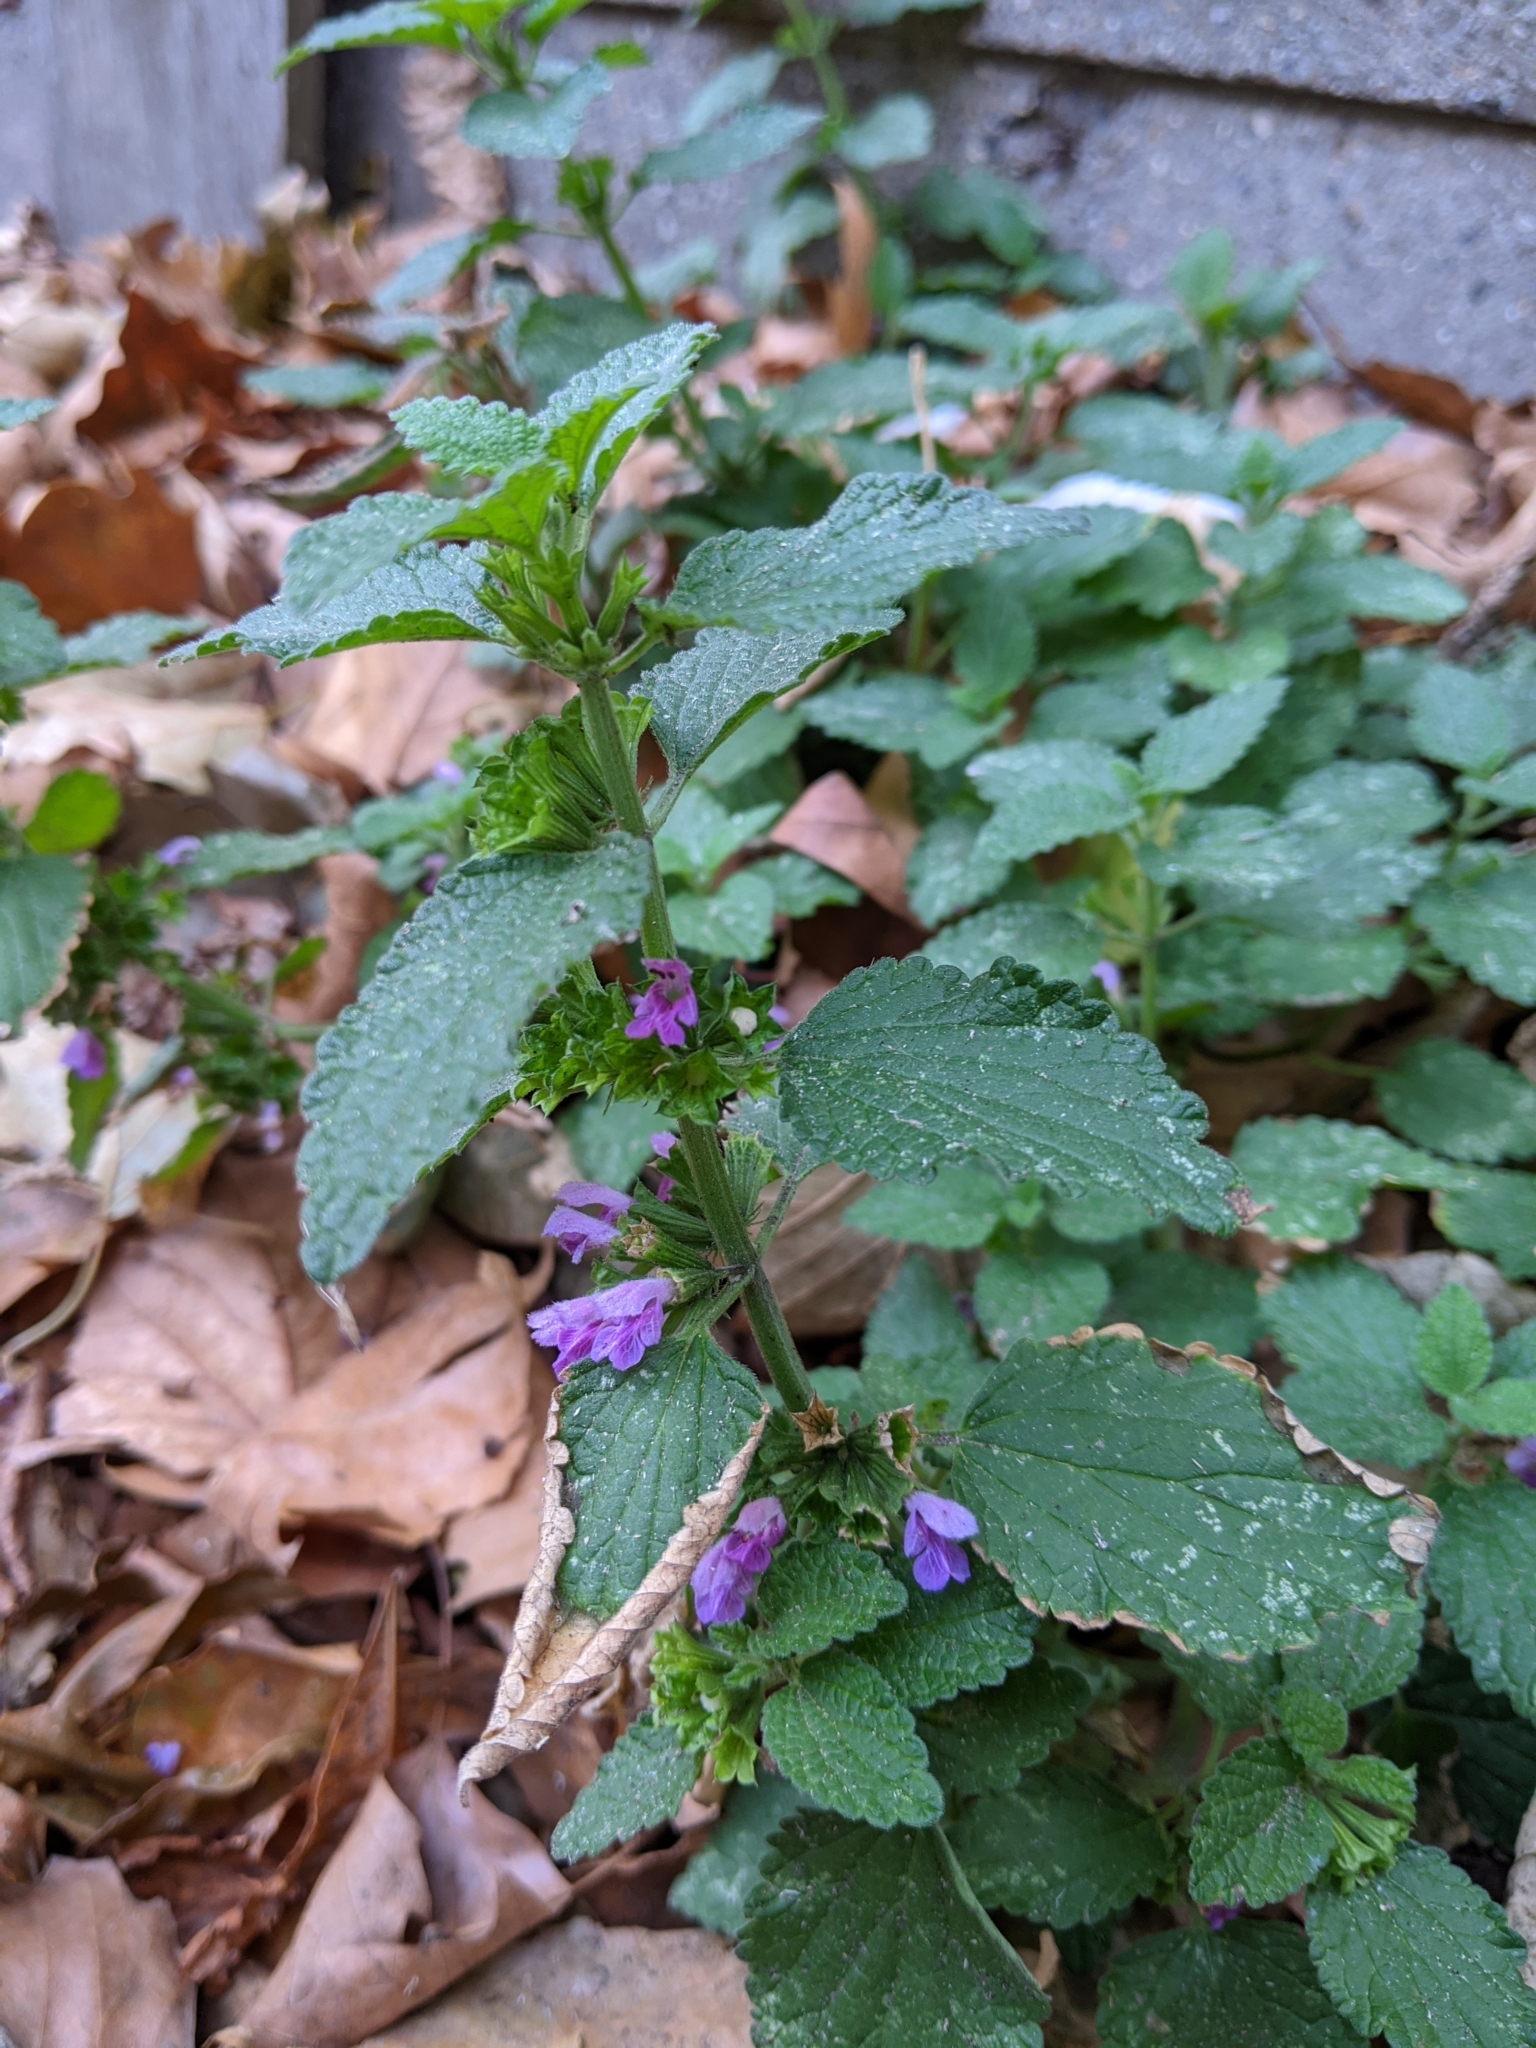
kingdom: Plantae
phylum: Tracheophyta
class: Magnoliopsida
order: Lamiales
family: Lamiaceae
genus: Ballota
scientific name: Ballota nigra
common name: Black horehound
